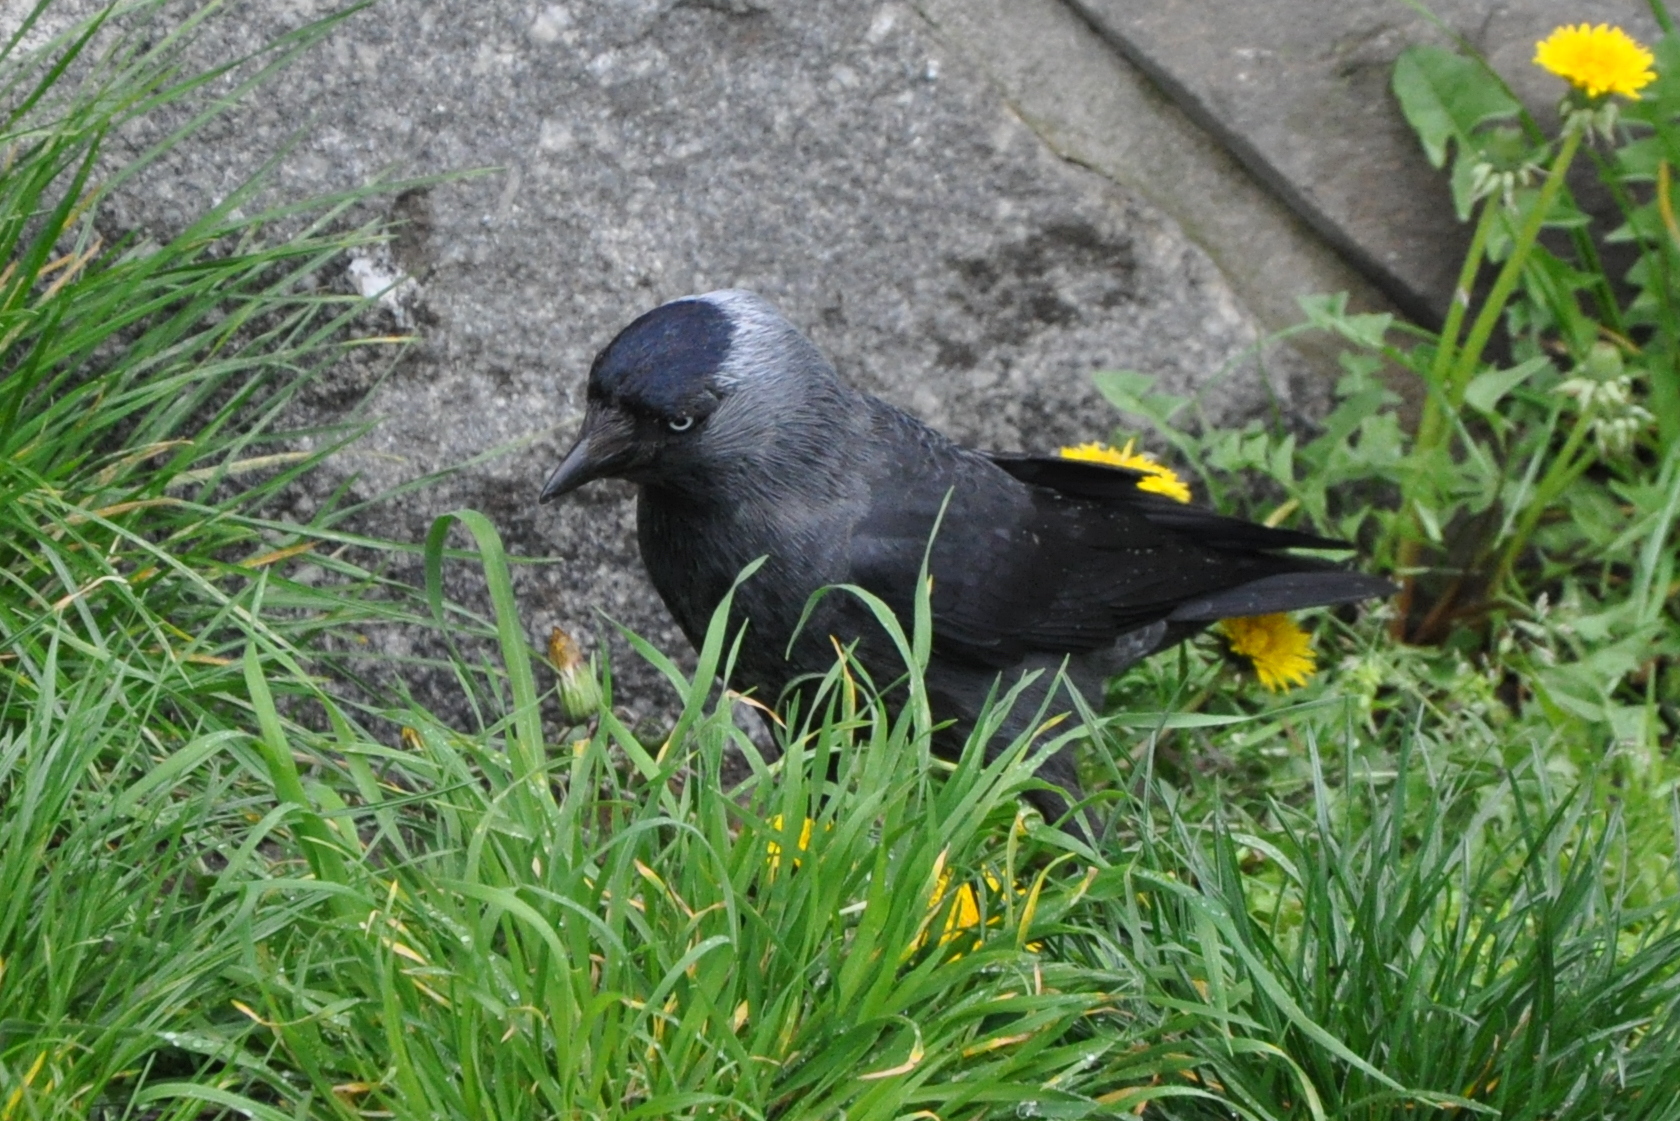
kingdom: Animalia
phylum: Chordata
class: Aves
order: Passeriformes
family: Corvidae
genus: Coloeus
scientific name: Coloeus monedula
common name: Western jackdaw
